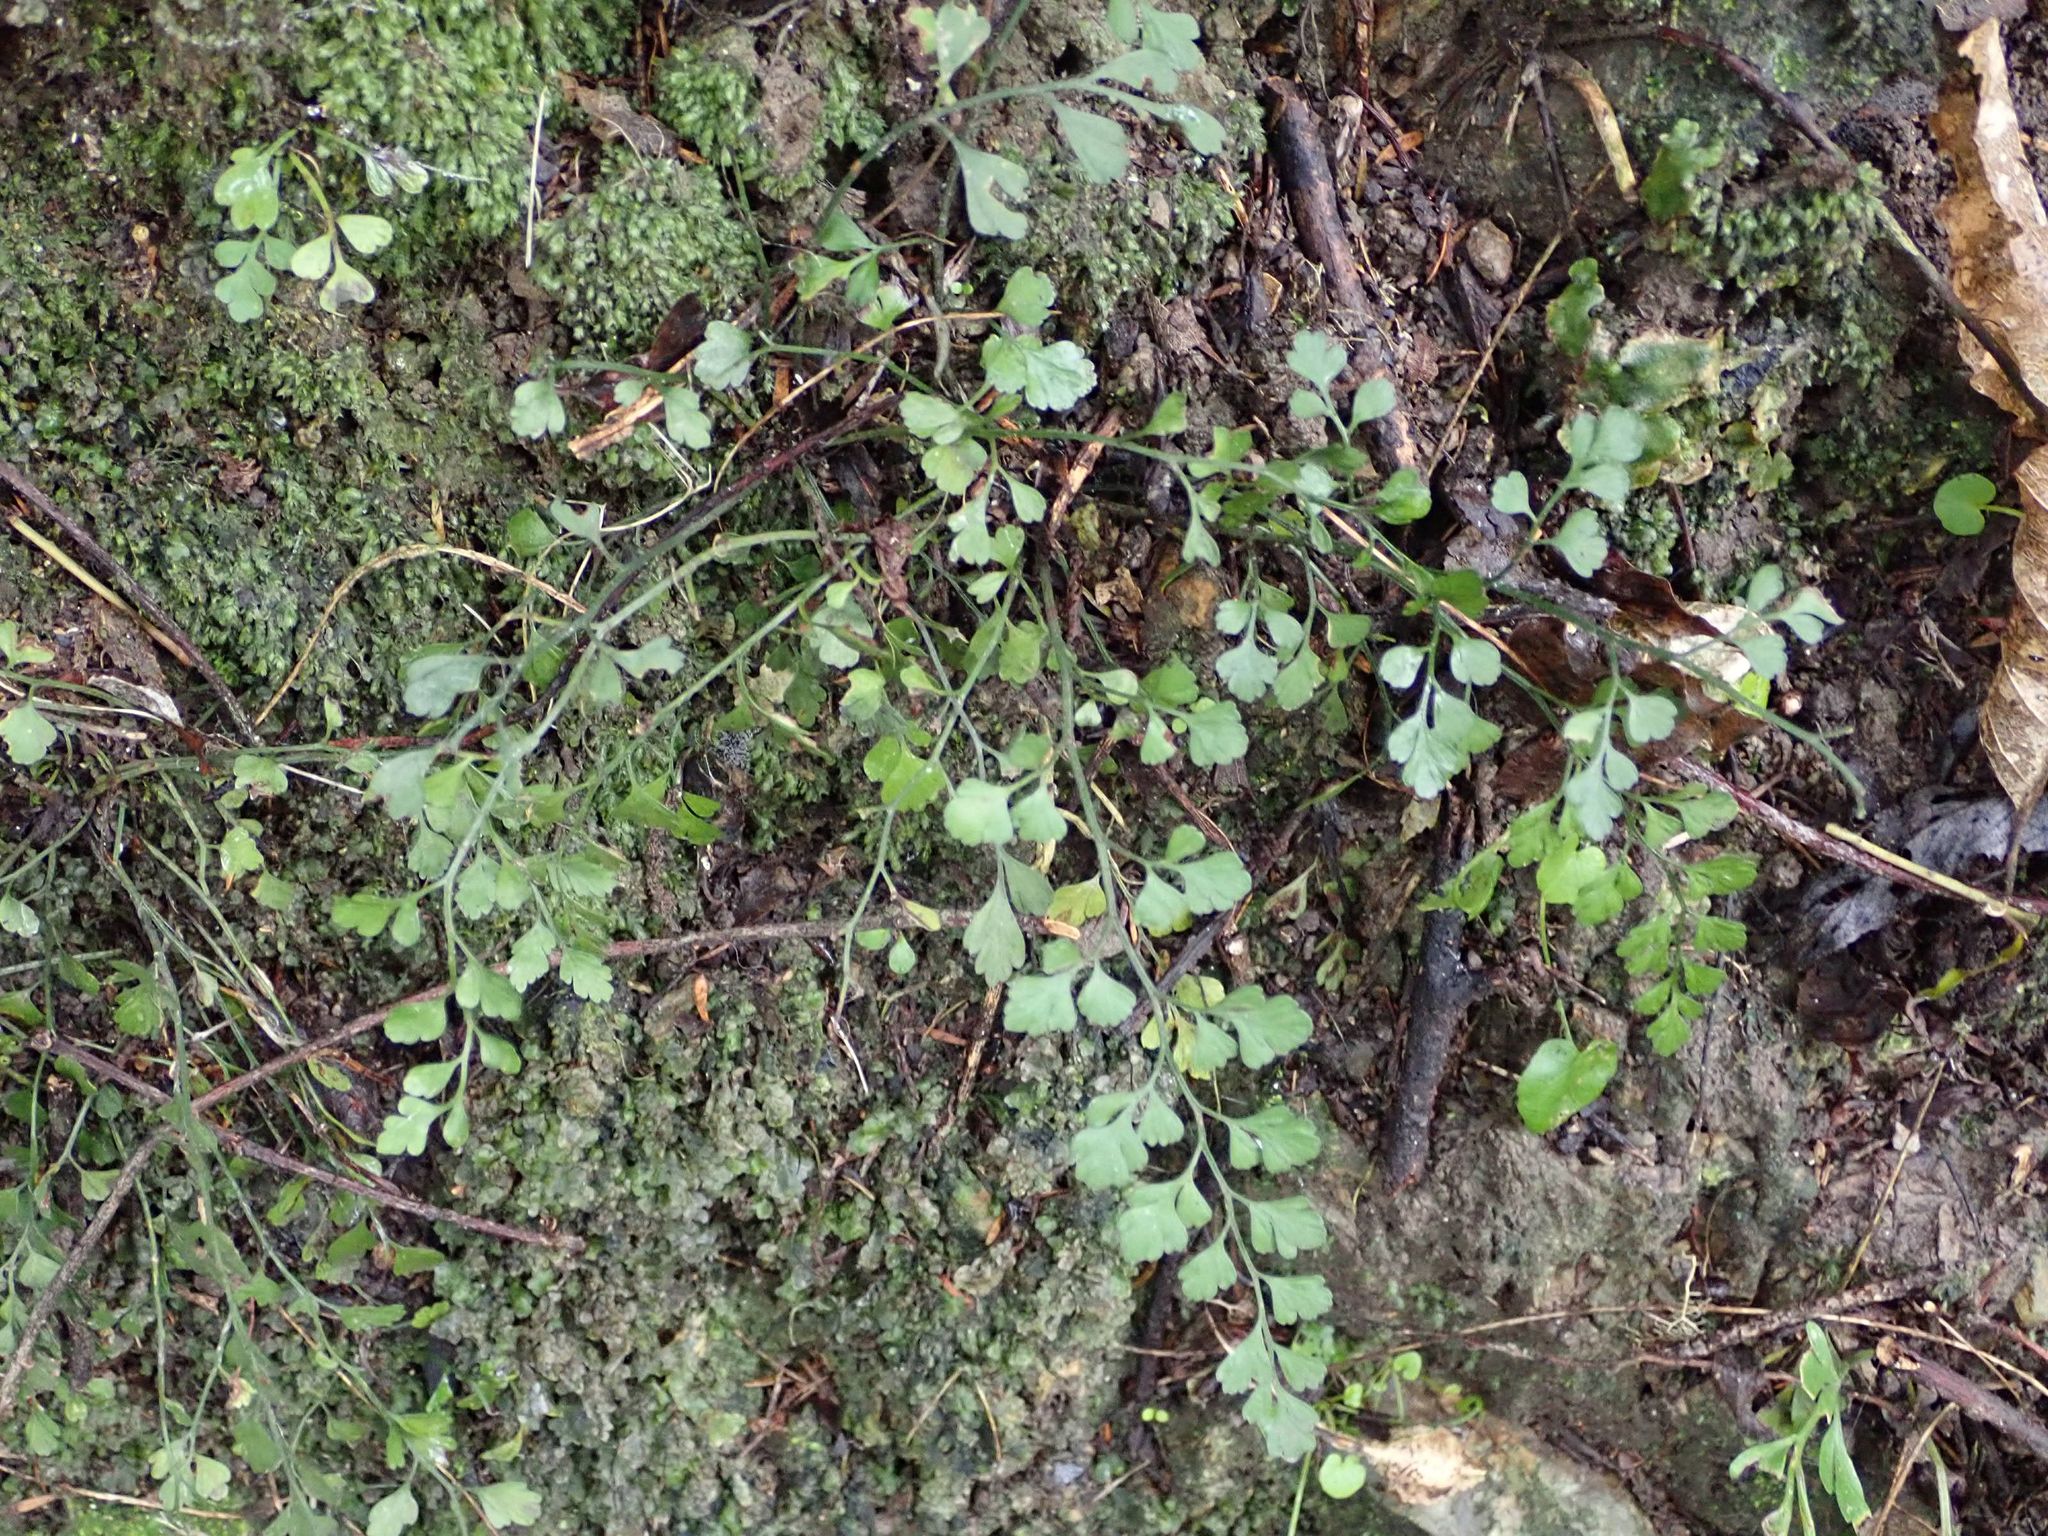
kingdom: Plantae
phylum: Tracheophyta
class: Polypodiopsida
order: Polypodiales
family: Aspleniaceae
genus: Asplenium
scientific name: Asplenium hookerianum
